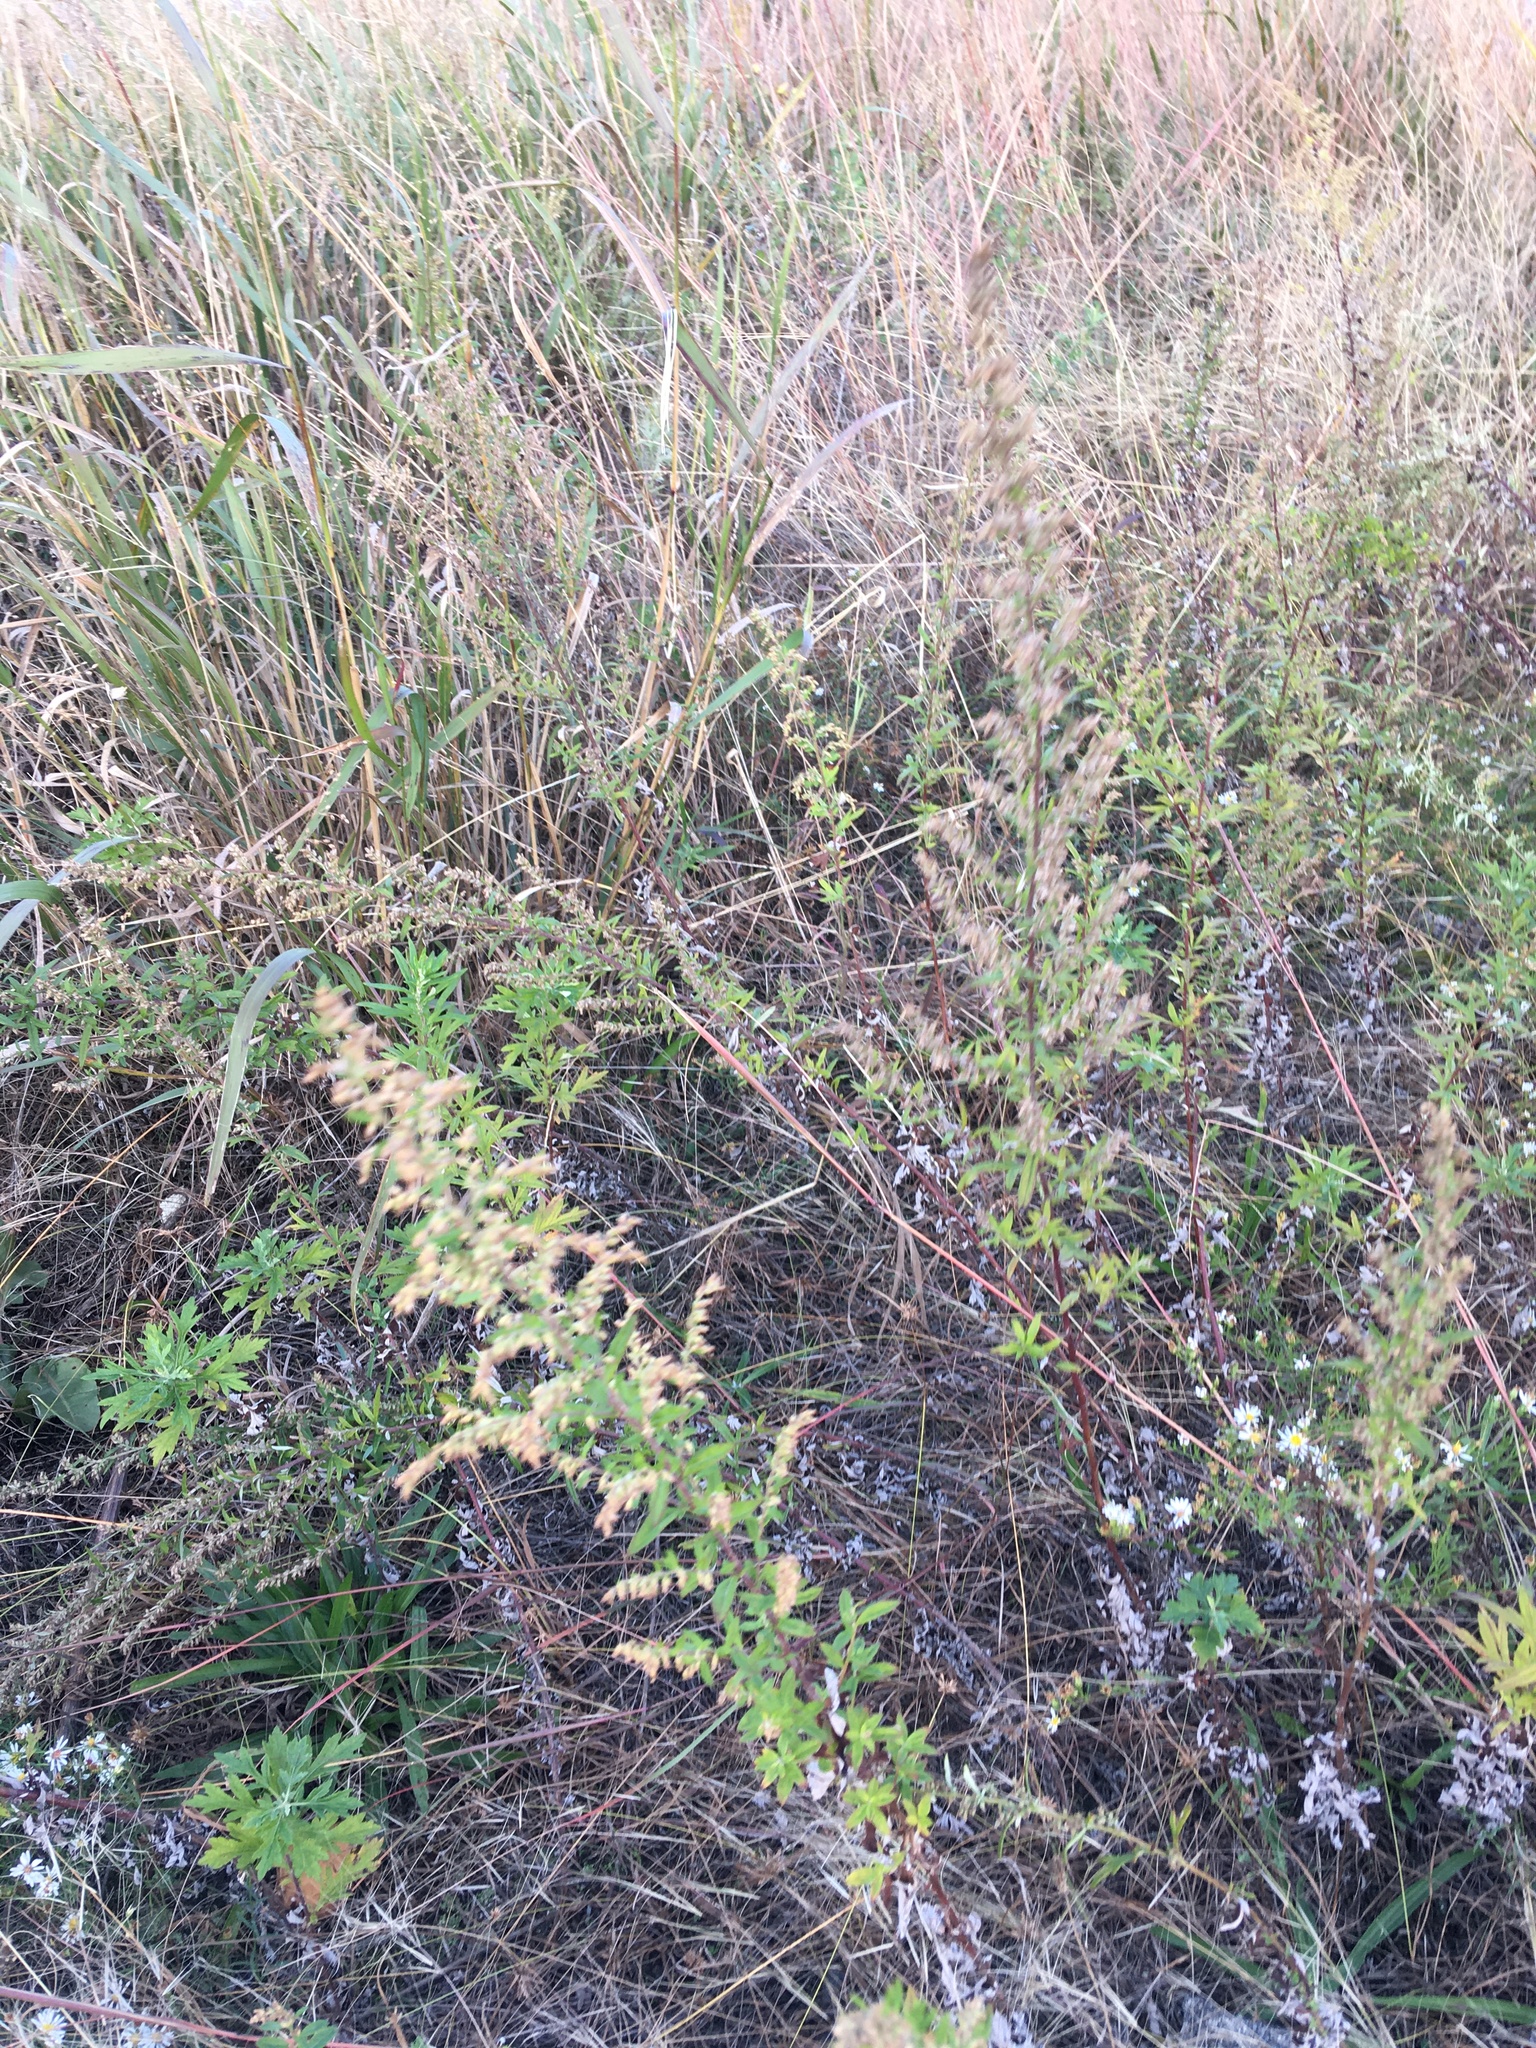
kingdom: Plantae
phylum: Tracheophyta
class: Magnoliopsida
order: Asterales
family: Asteraceae
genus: Artemisia
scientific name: Artemisia vulgaris
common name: Mugwort
